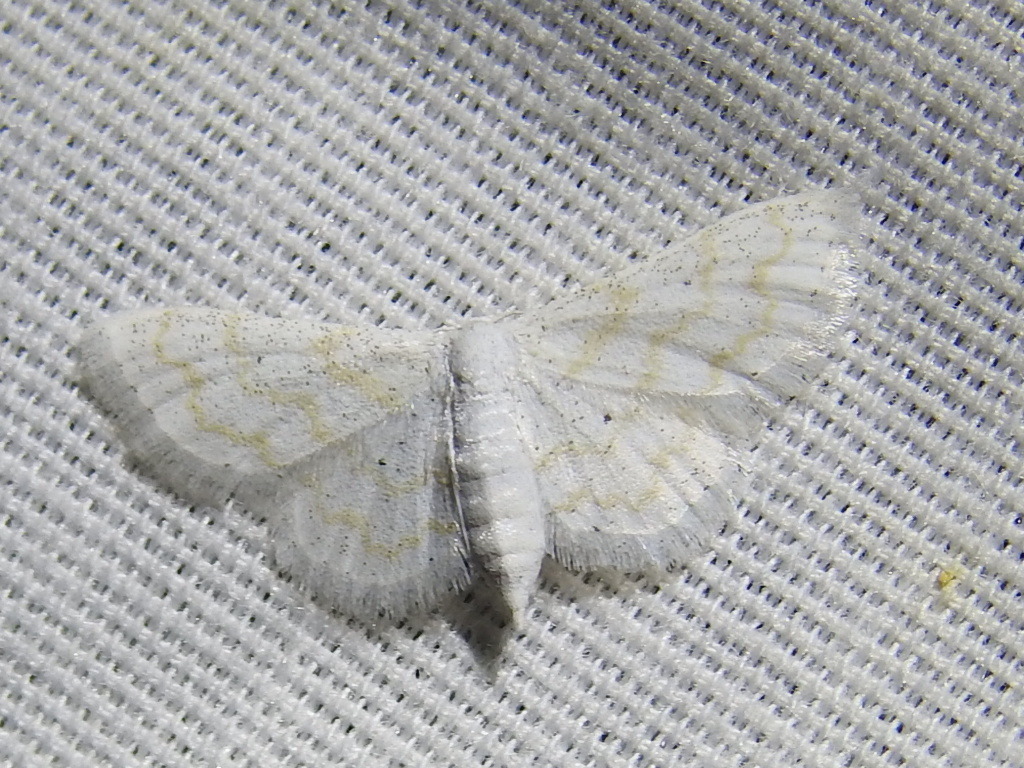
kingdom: Animalia
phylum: Arthropoda
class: Insecta
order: Lepidoptera
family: Geometridae
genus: Lobocleta
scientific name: Lobocleta peralbata
